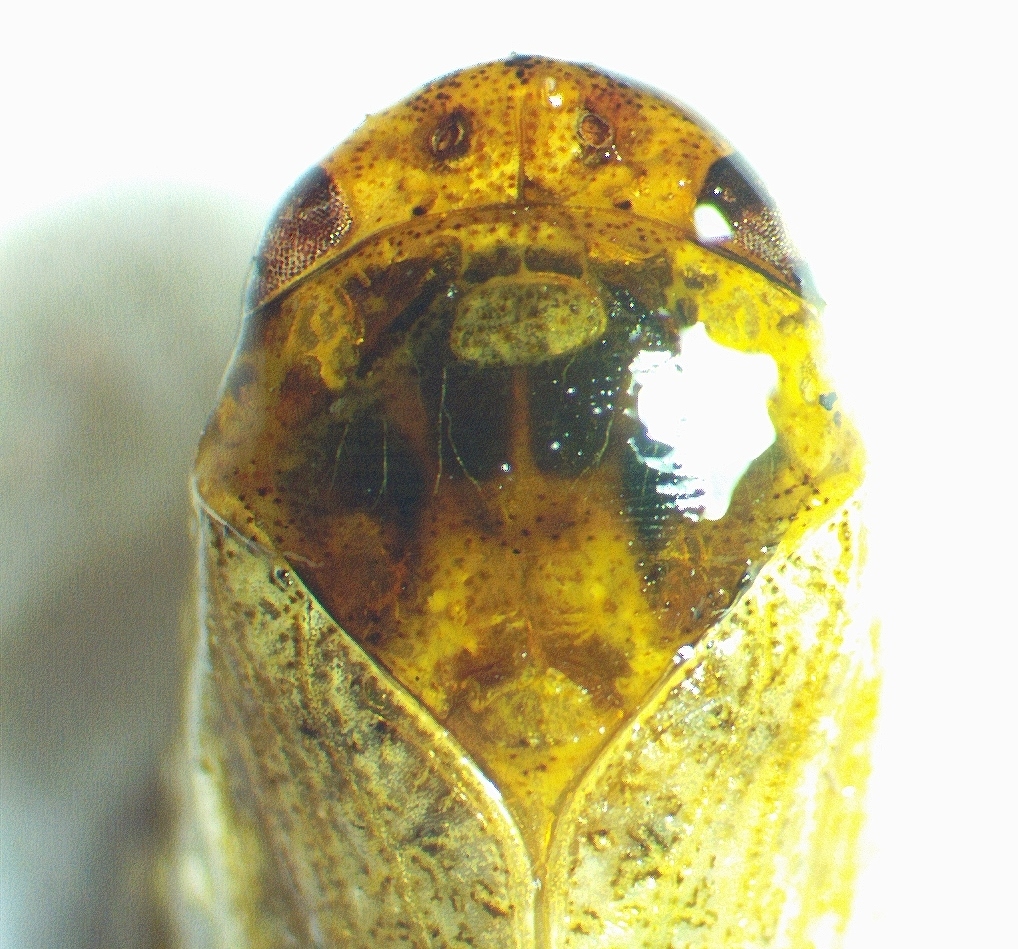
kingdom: Animalia
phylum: Arthropoda
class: Insecta
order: Hemiptera
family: Cicadellidae
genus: Curtara
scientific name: Curtara insularis
